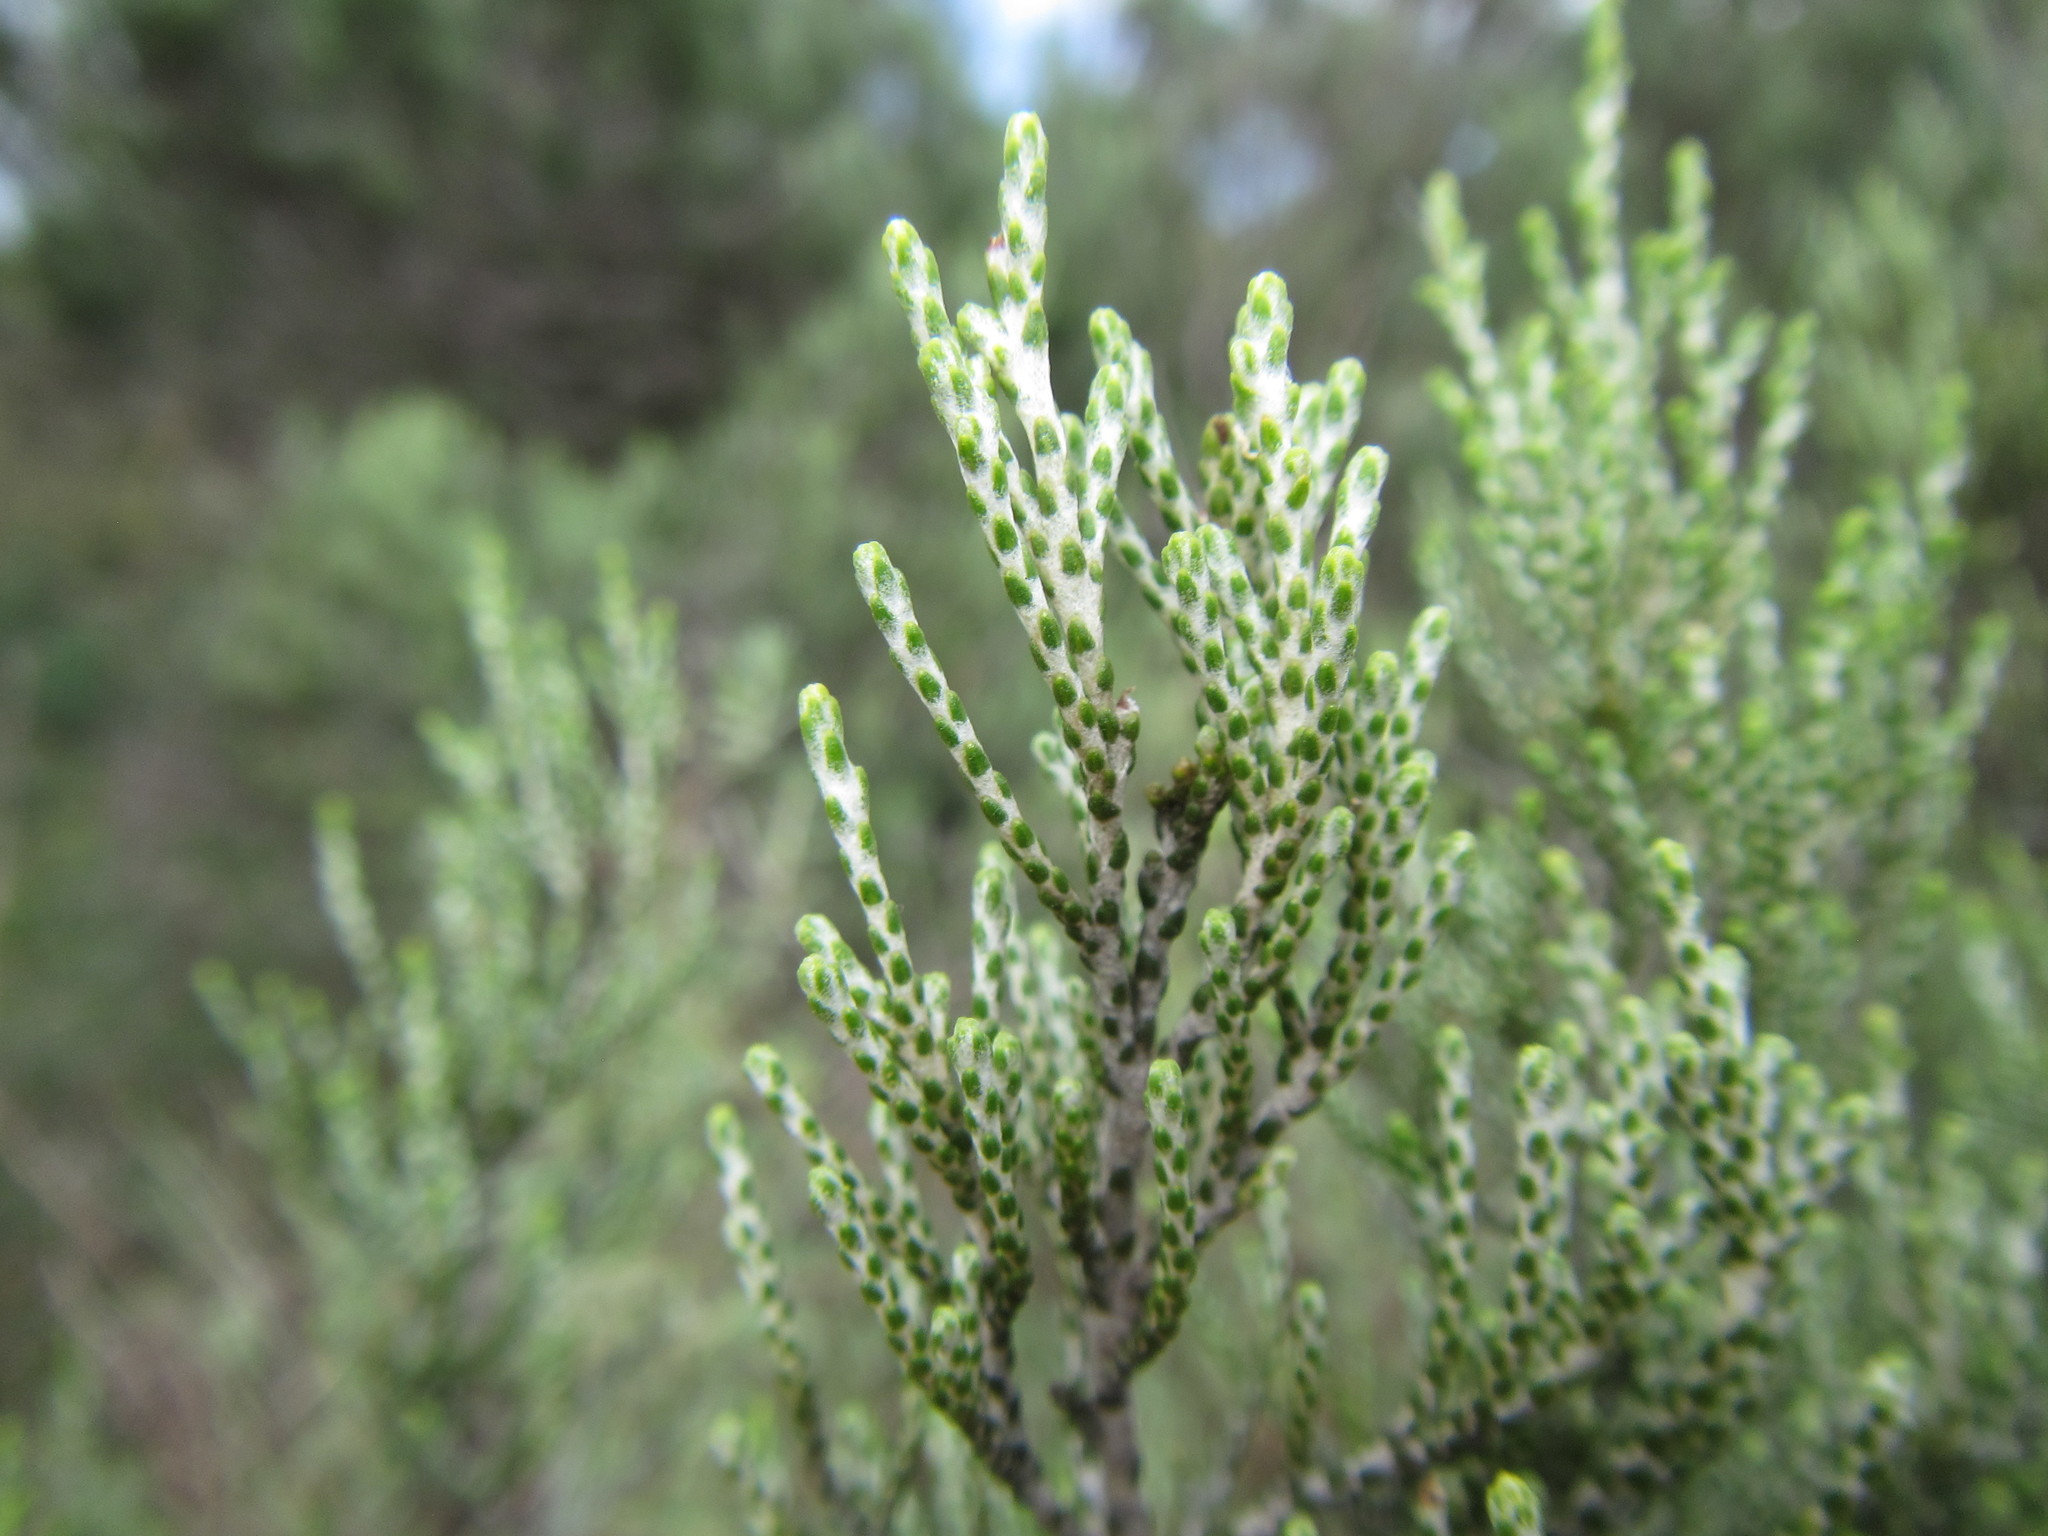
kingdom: Plantae
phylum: Tracheophyta
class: Magnoliopsida
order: Asterales
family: Asteraceae
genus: Dicerothamnus
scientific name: Dicerothamnus rhinocerotis
